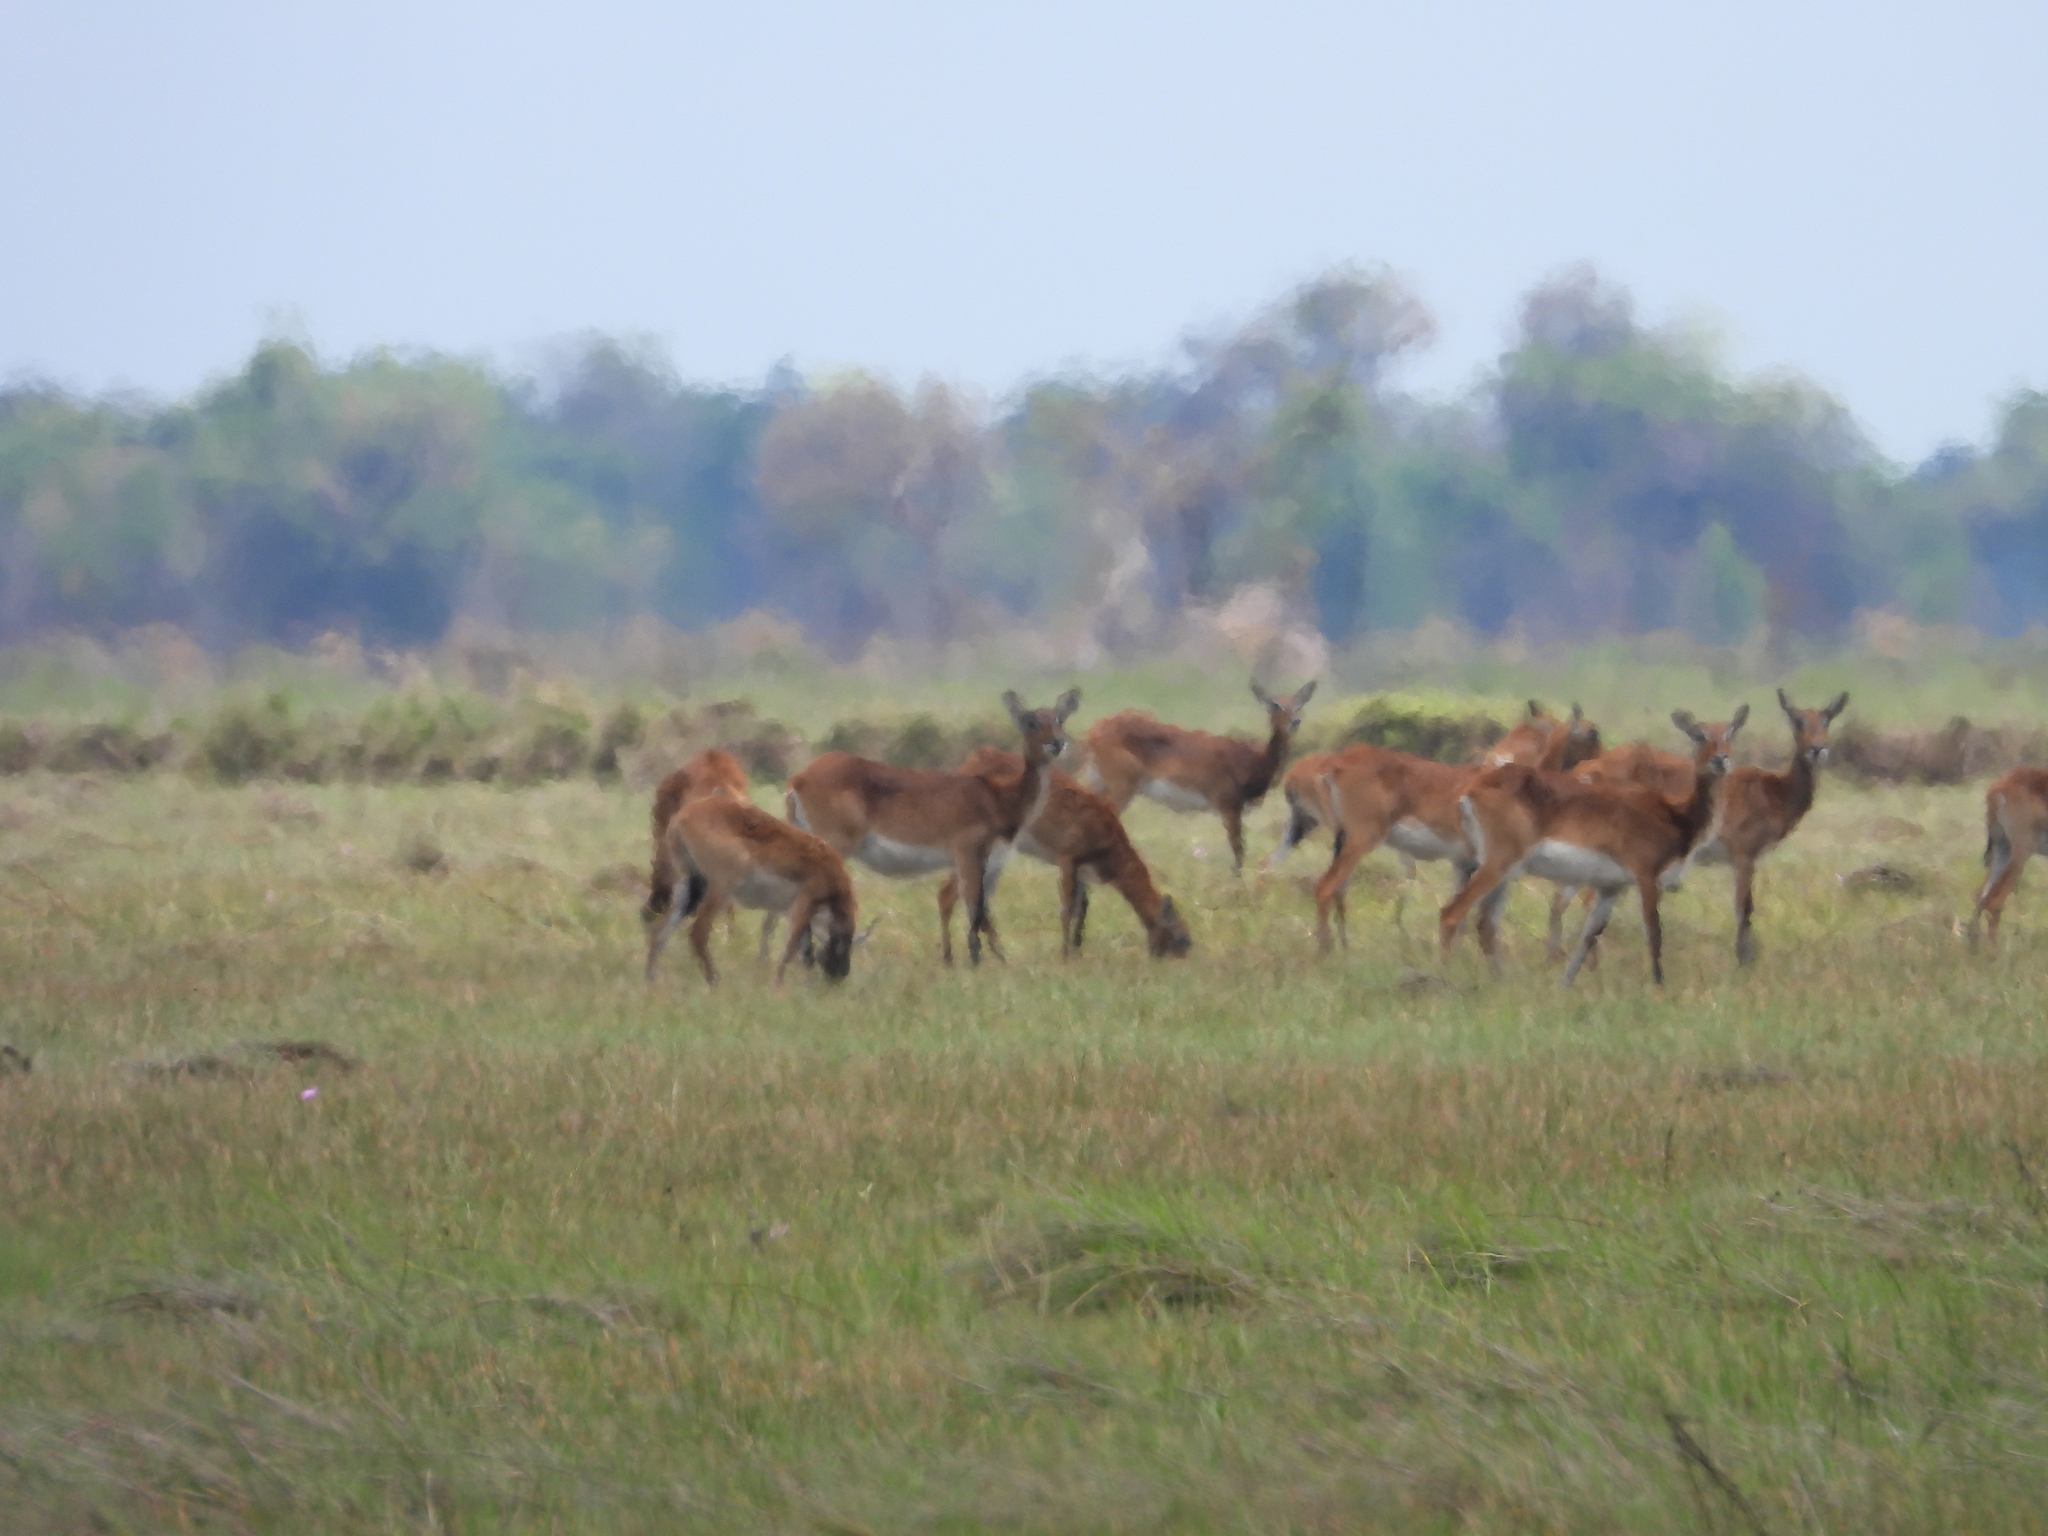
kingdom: Animalia
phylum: Chordata
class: Mammalia
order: Artiodactyla
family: Bovidae
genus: Kobus
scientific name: Kobus leche
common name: Lechwe
